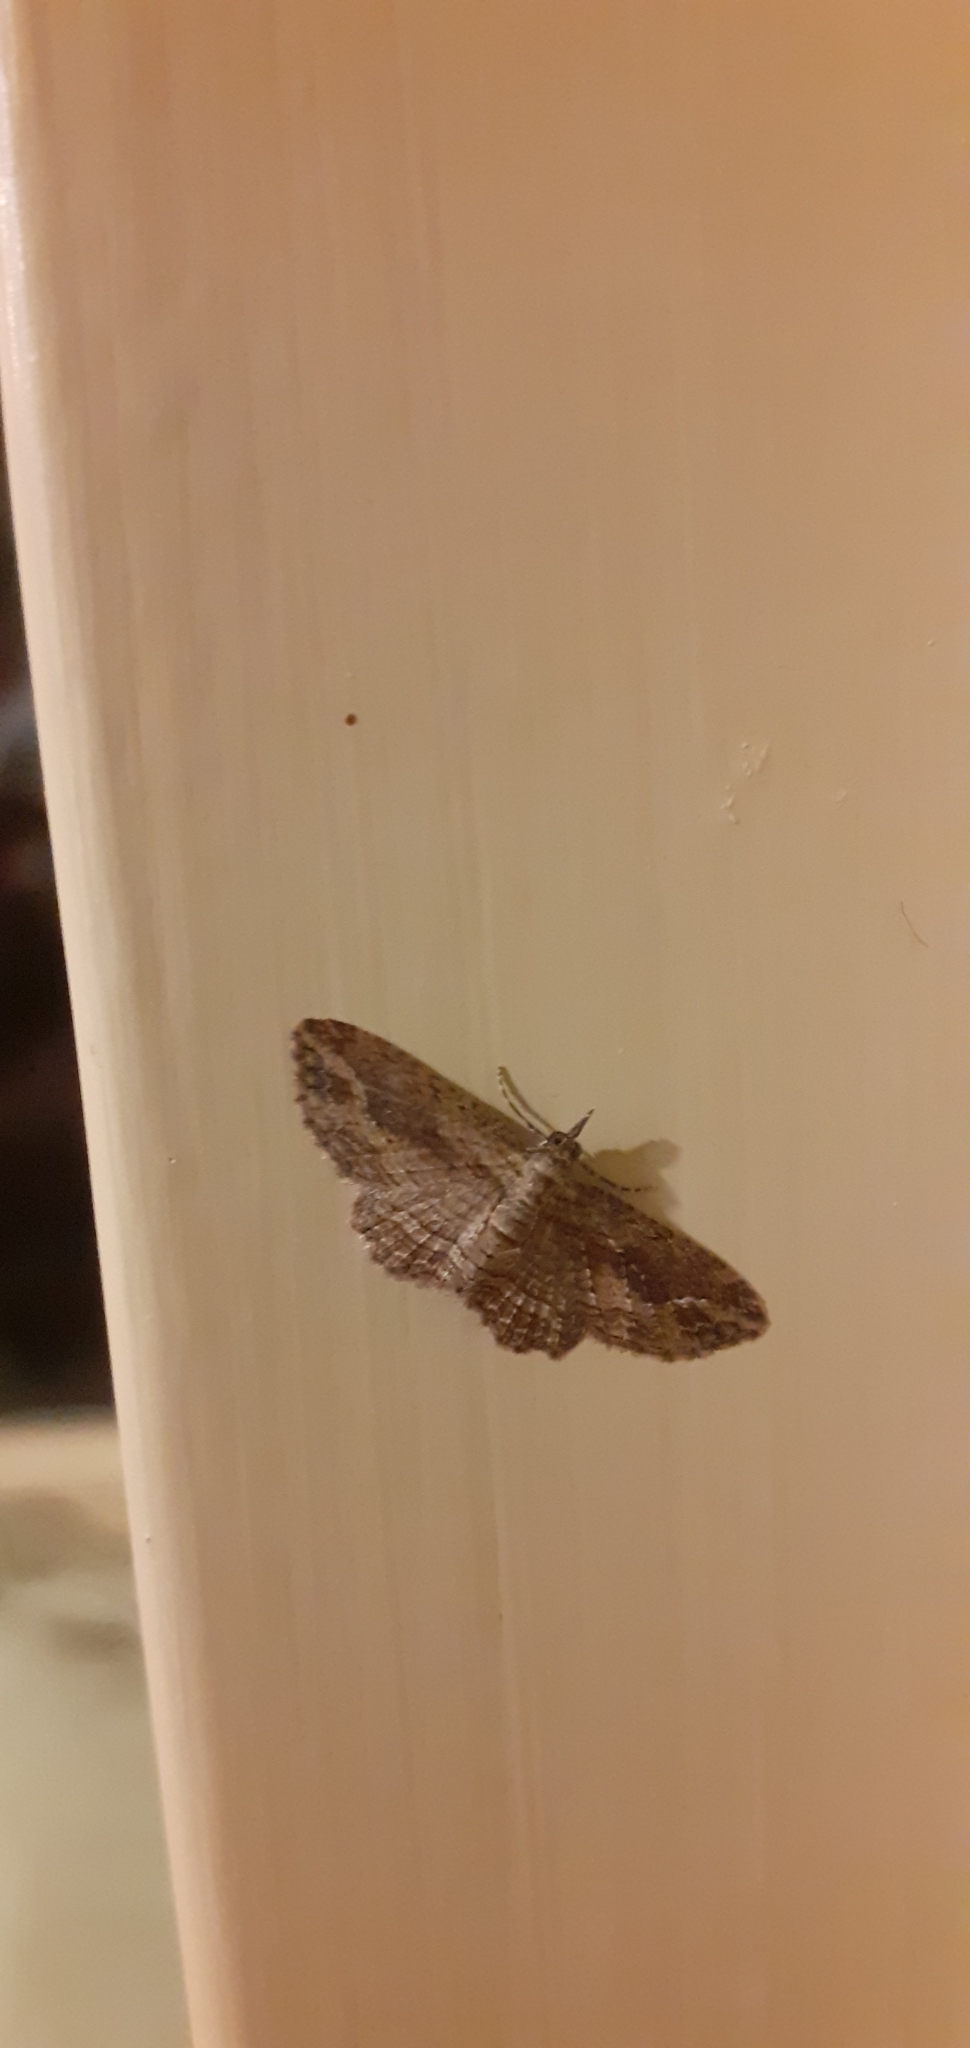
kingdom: Animalia
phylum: Arthropoda
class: Insecta
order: Lepidoptera
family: Geometridae
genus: Chloroclystis
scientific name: Chloroclystis filata
